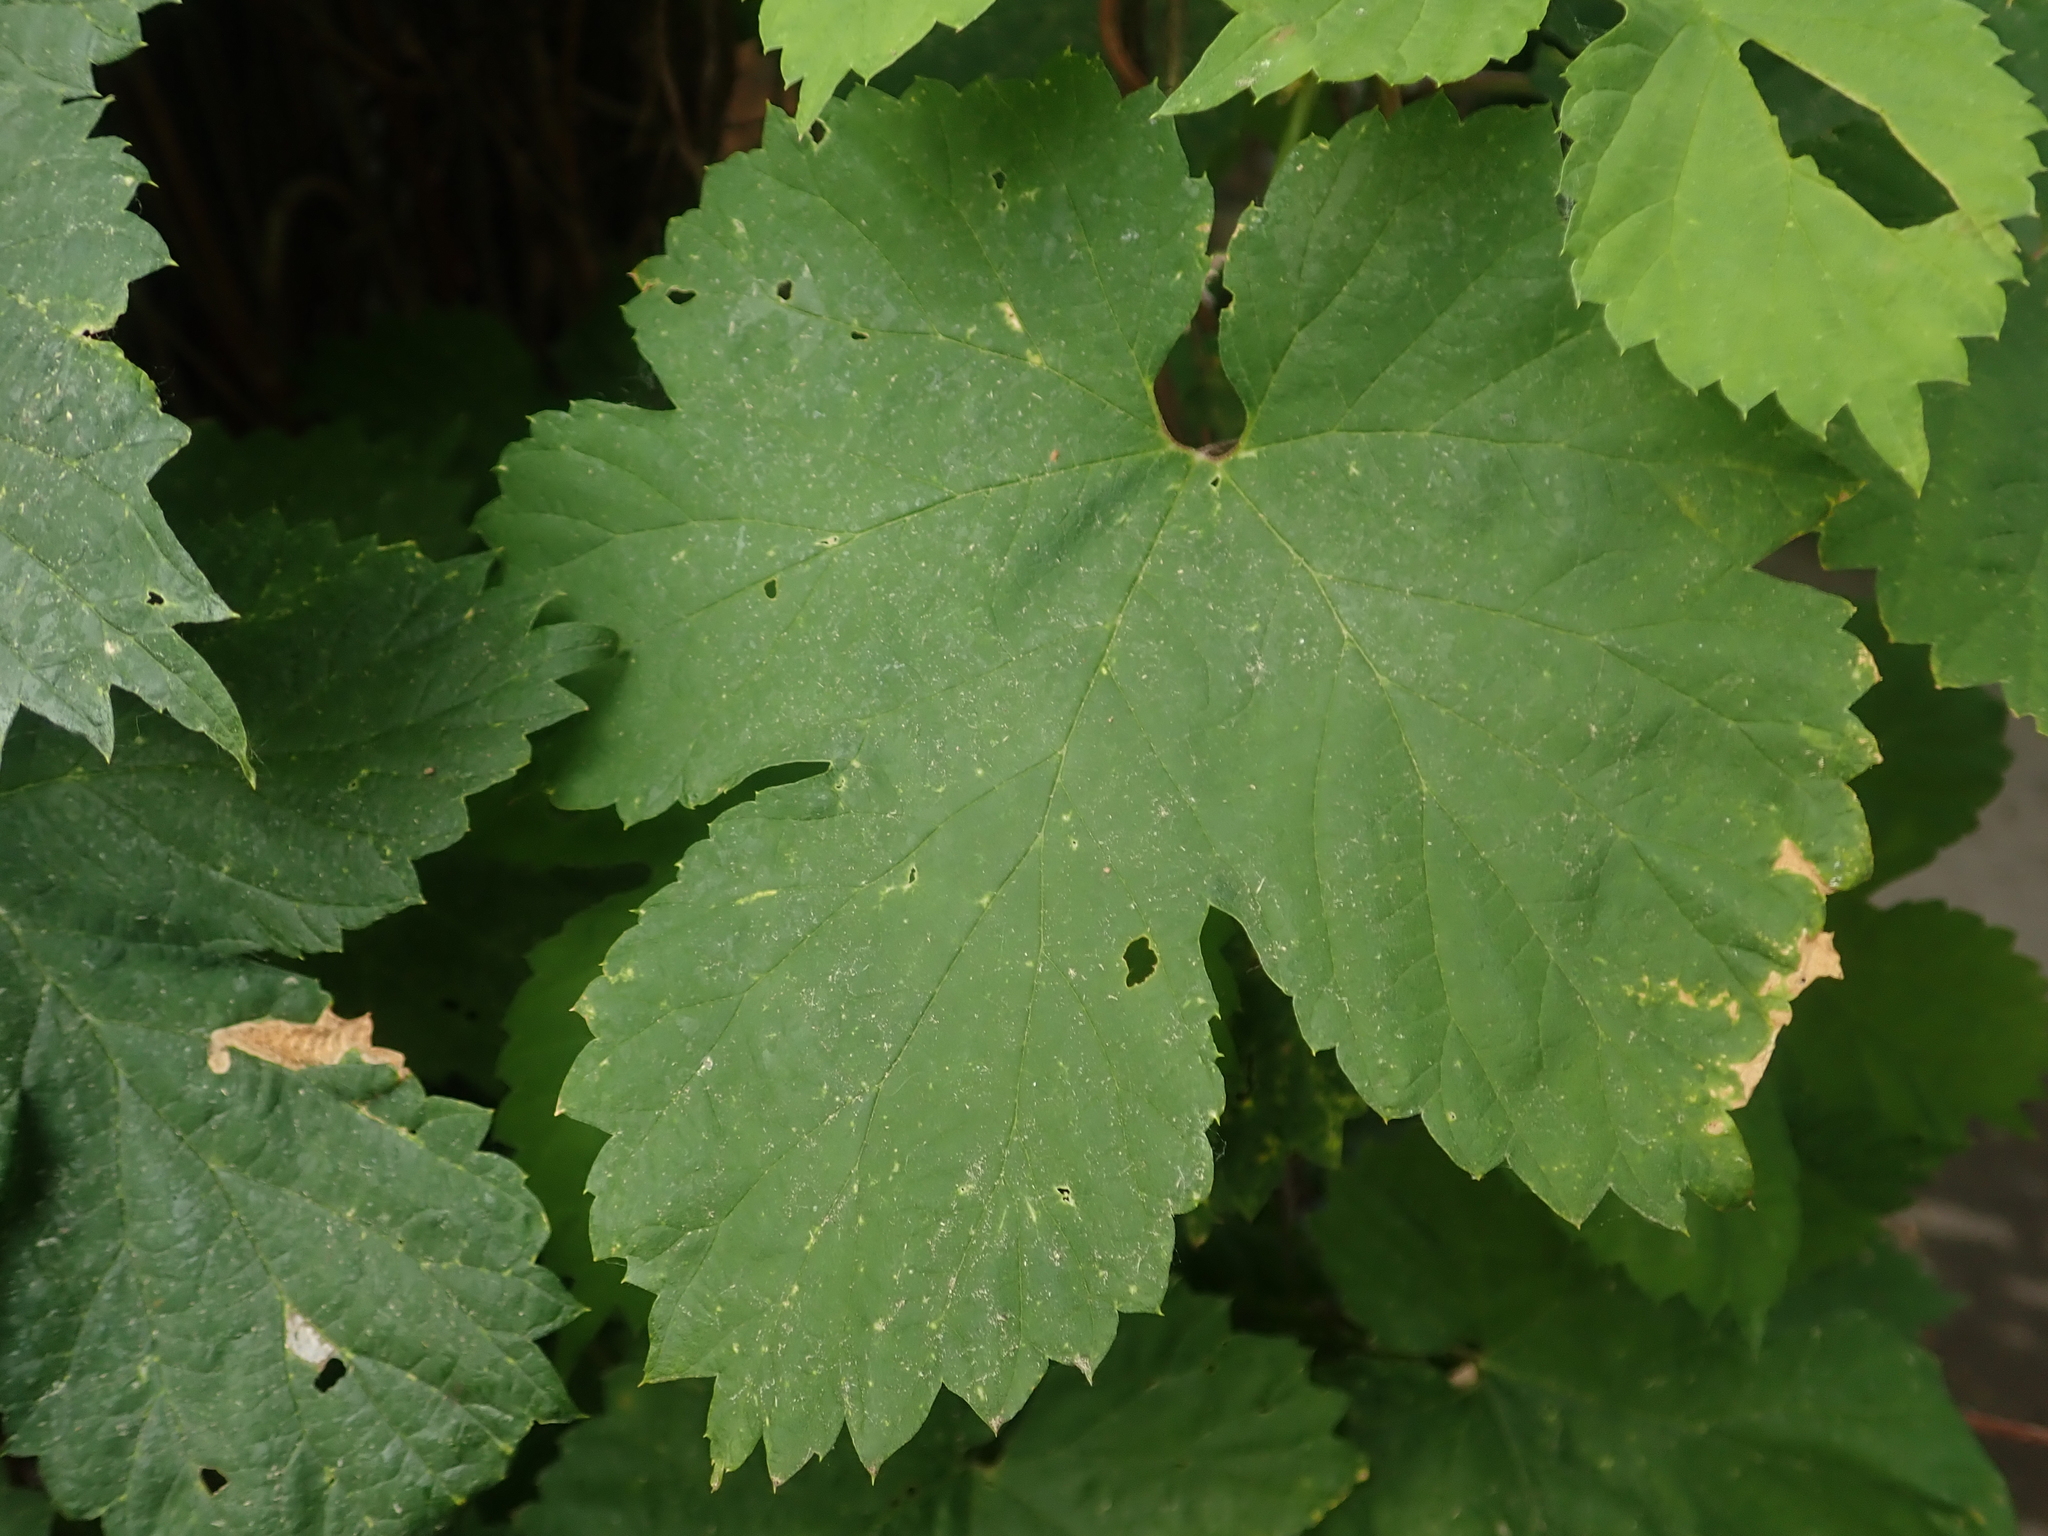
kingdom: Plantae
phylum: Tracheophyta
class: Magnoliopsida
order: Rosales
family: Cannabaceae
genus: Humulus
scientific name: Humulus lupulus
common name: Hop
